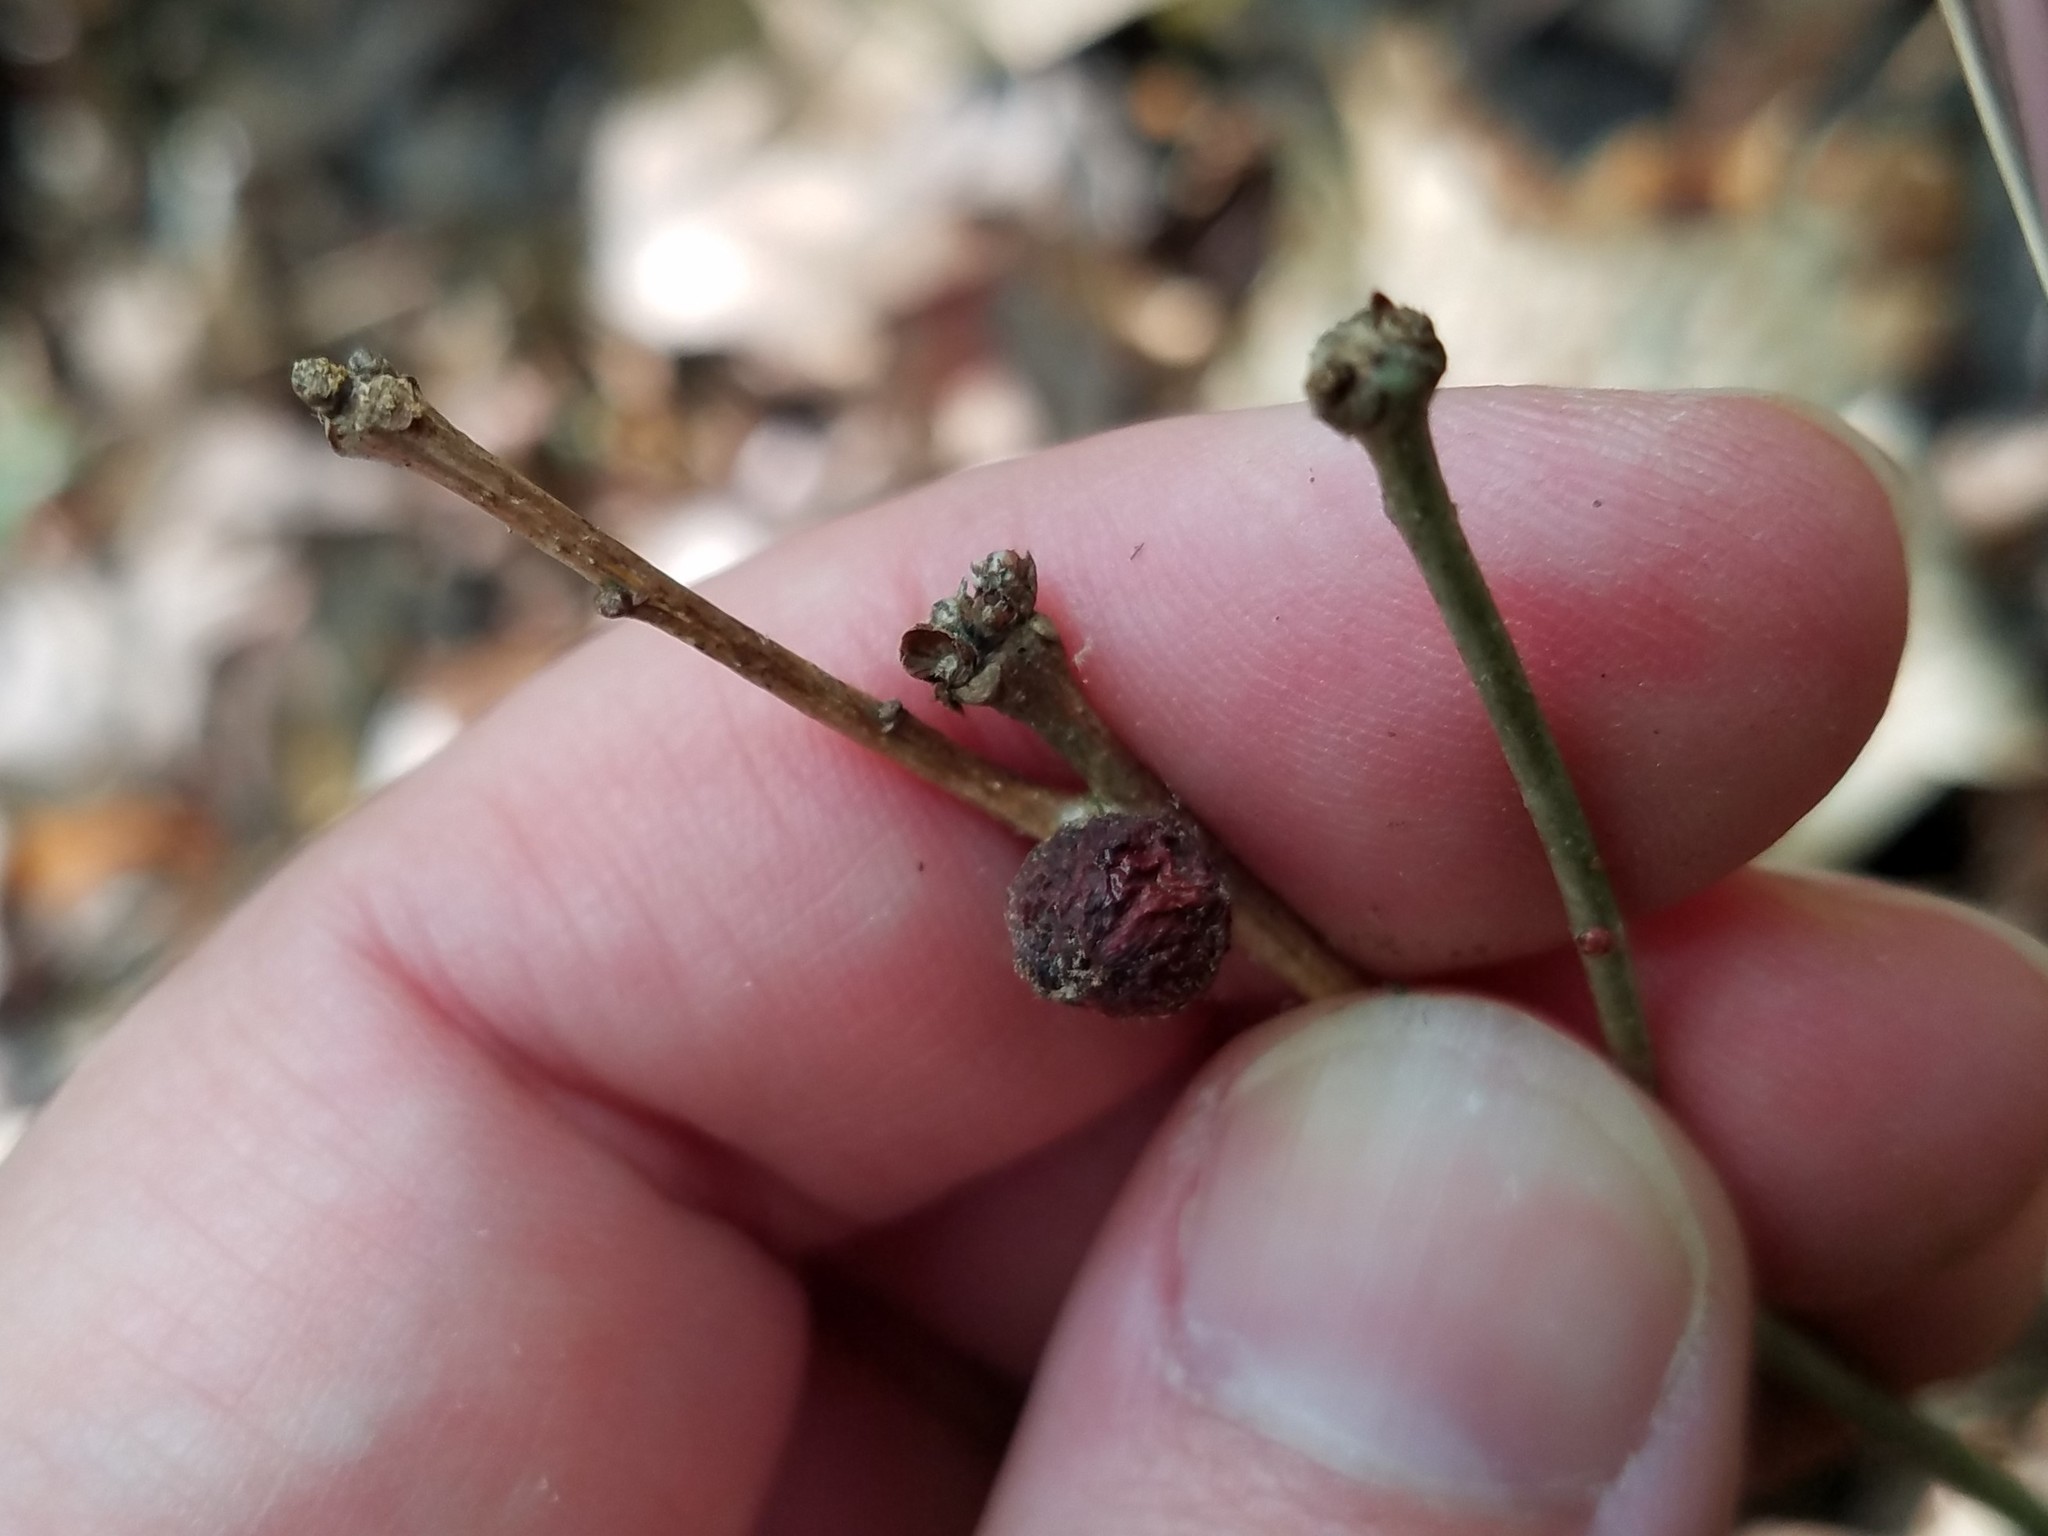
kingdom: Animalia
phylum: Arthropoda
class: Insecta
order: Hymenoptera
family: Cynipidae
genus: Disholcaspis
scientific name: Disholcaspis quercusglobulus
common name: Round bullet gall wasp
